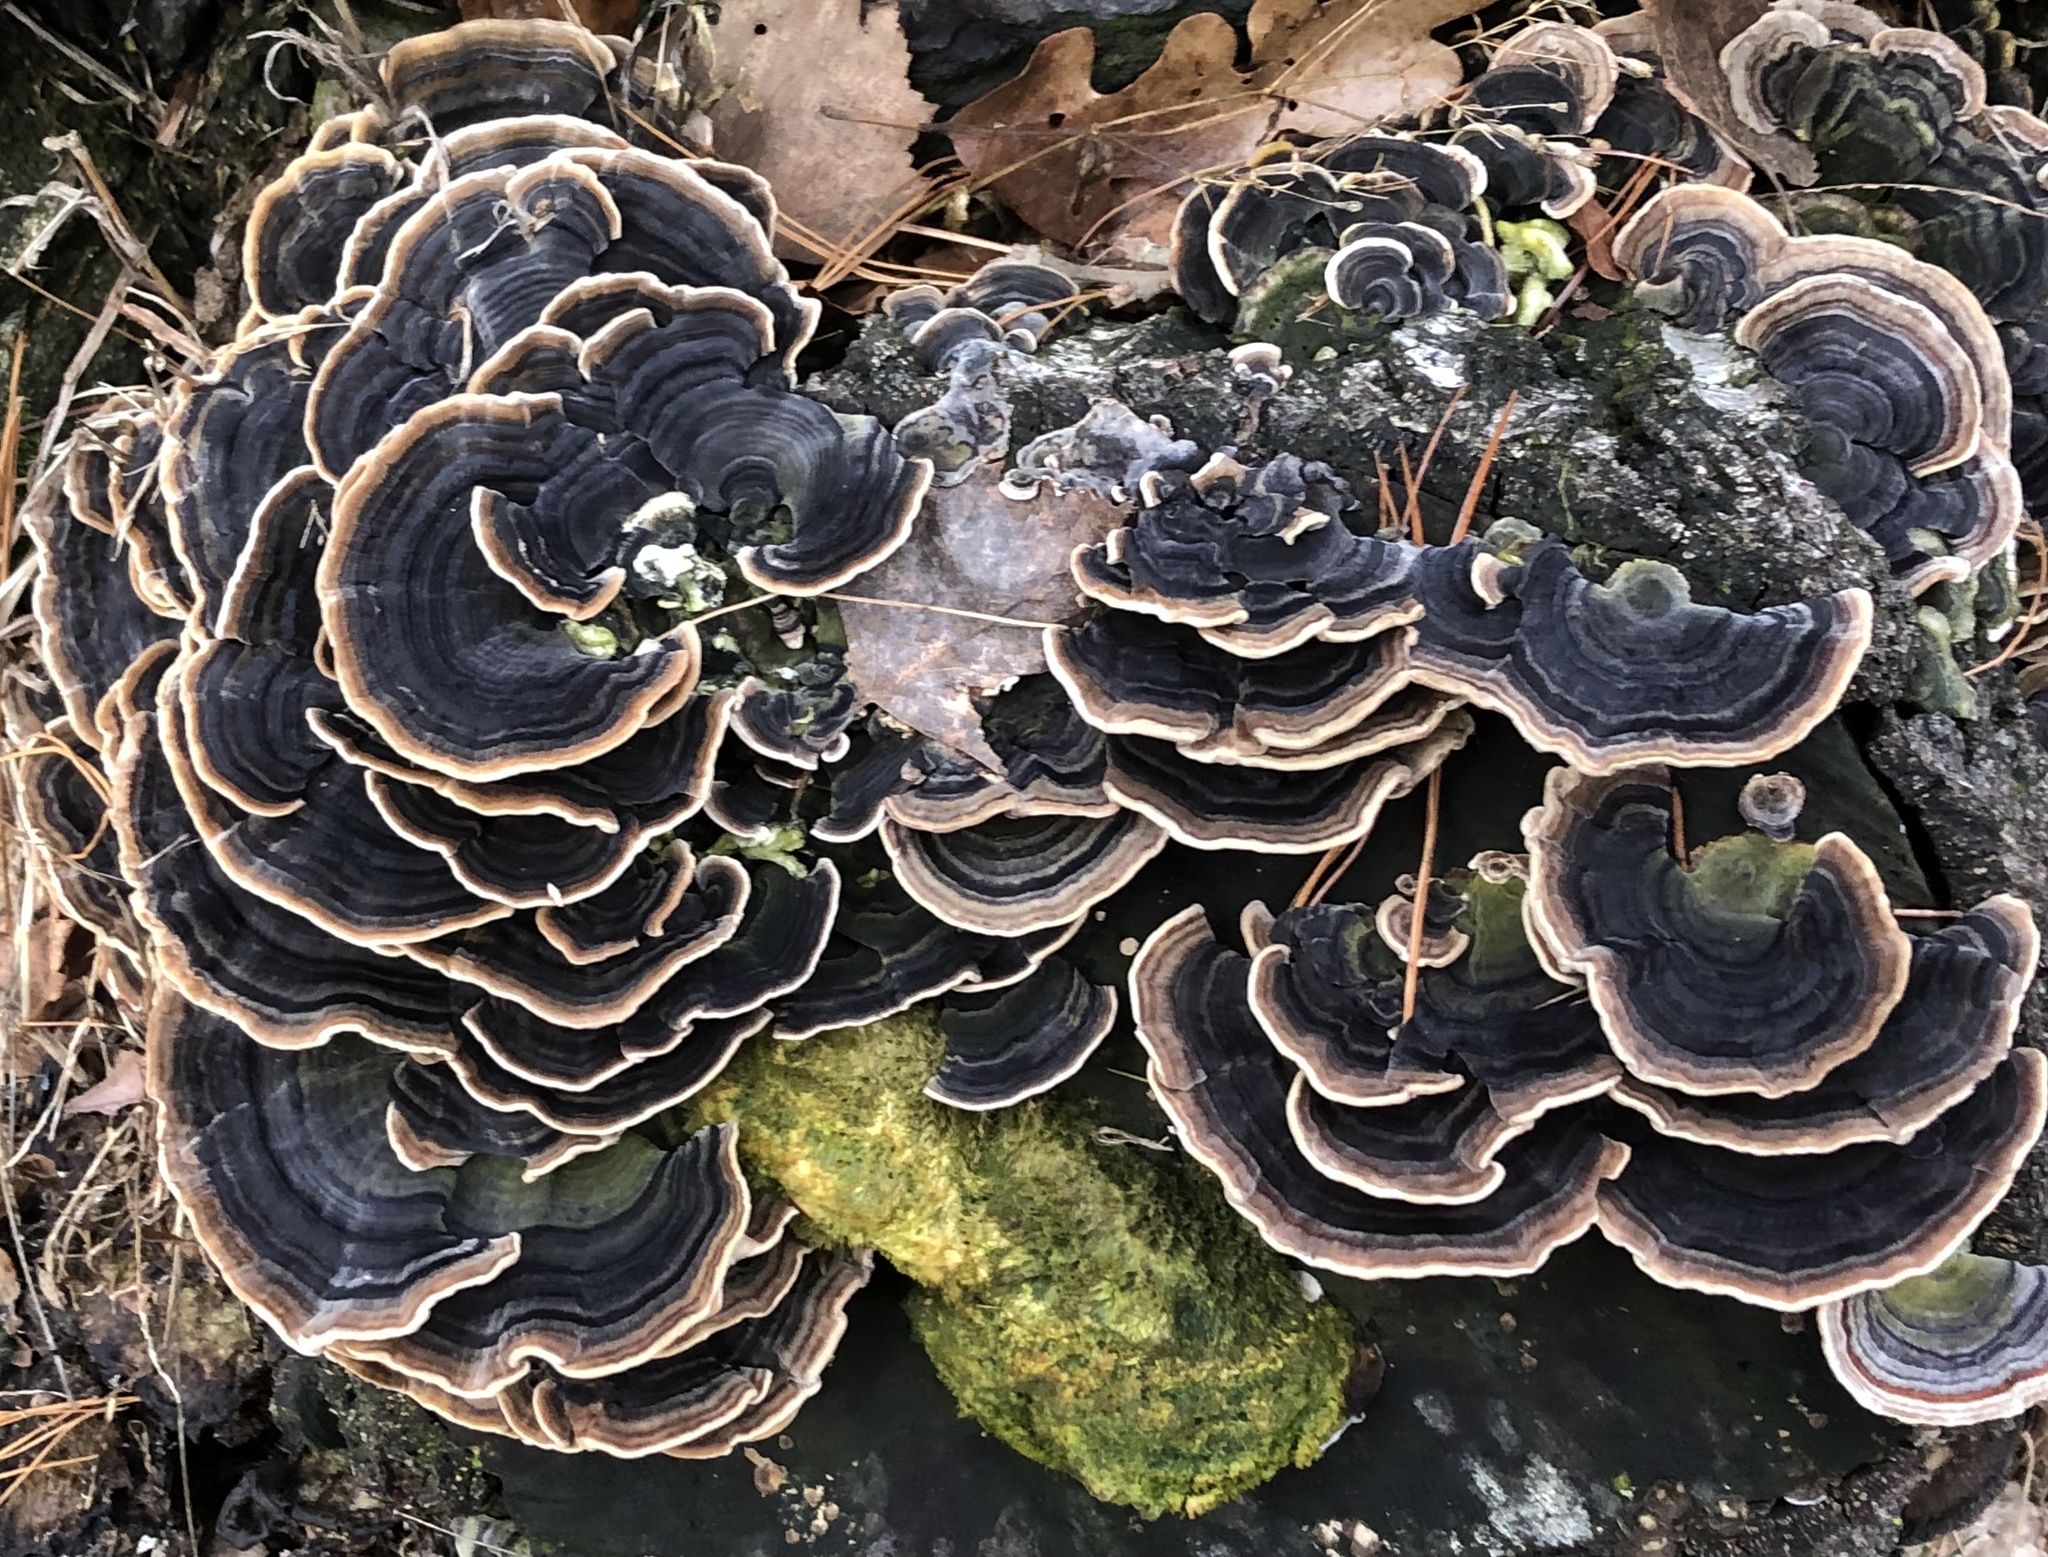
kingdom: Fungi
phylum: Basidiomycota
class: Agaricomycetes
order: Polyporales
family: Polyporaceae
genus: Trametes
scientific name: Trametes versicolor
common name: Turkeytail
